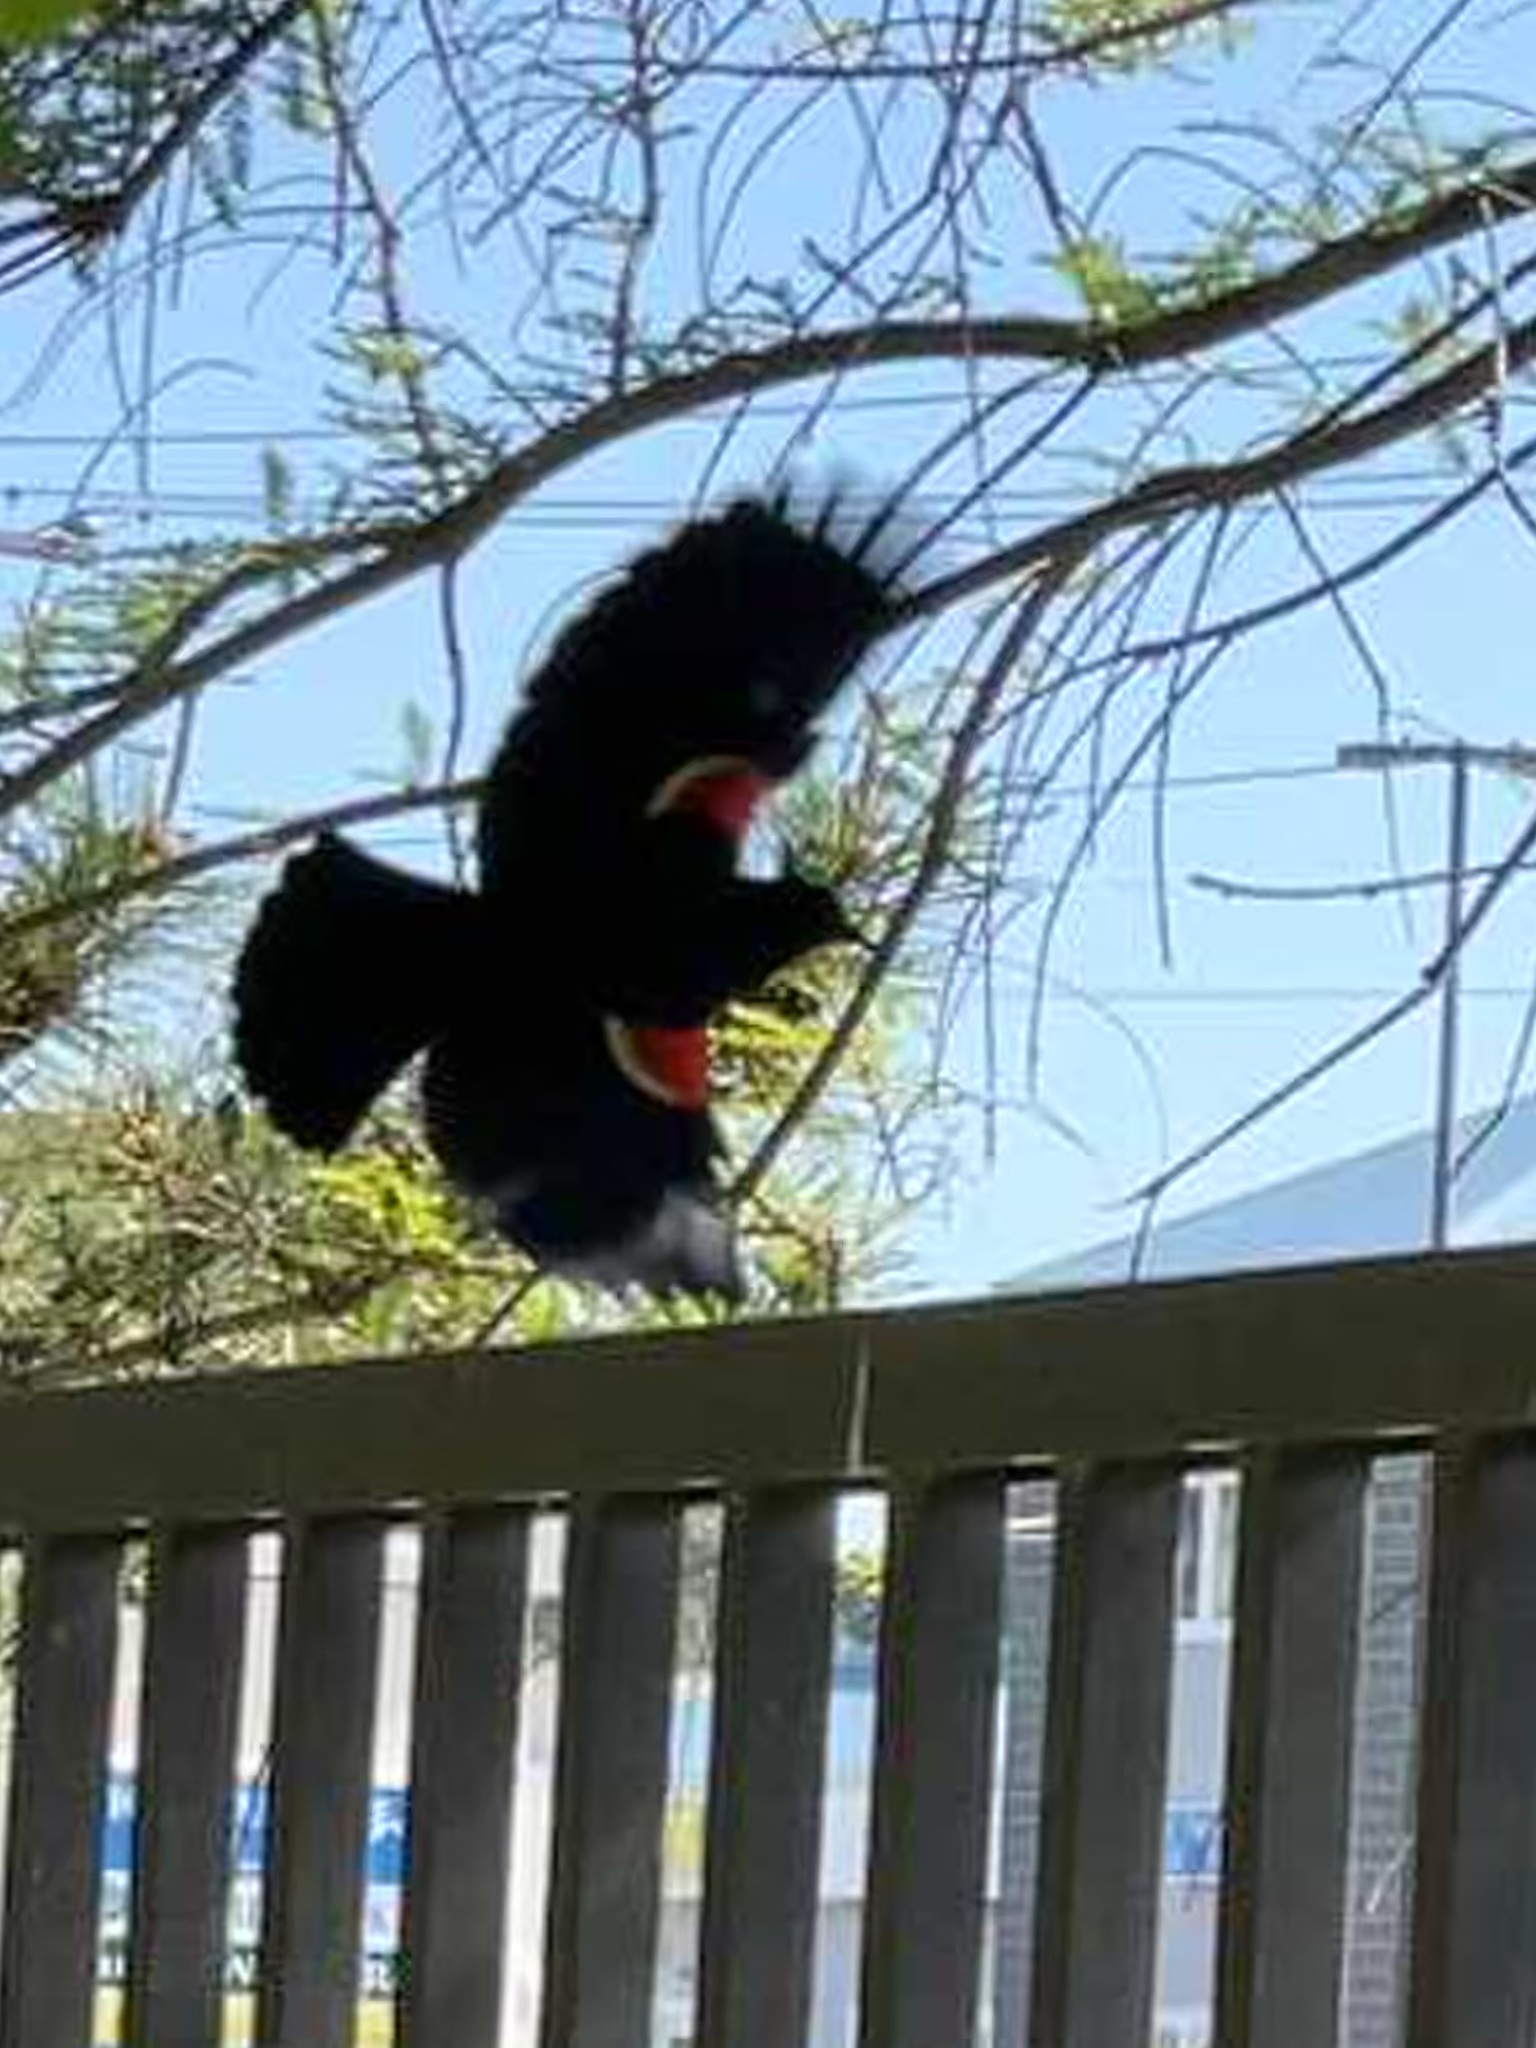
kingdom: Animalia
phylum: Chordata
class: Aves
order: Passeriformes
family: Icteridae
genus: Agelaius
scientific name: Agelaius phoeniceus
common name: Red-winged blackbird
